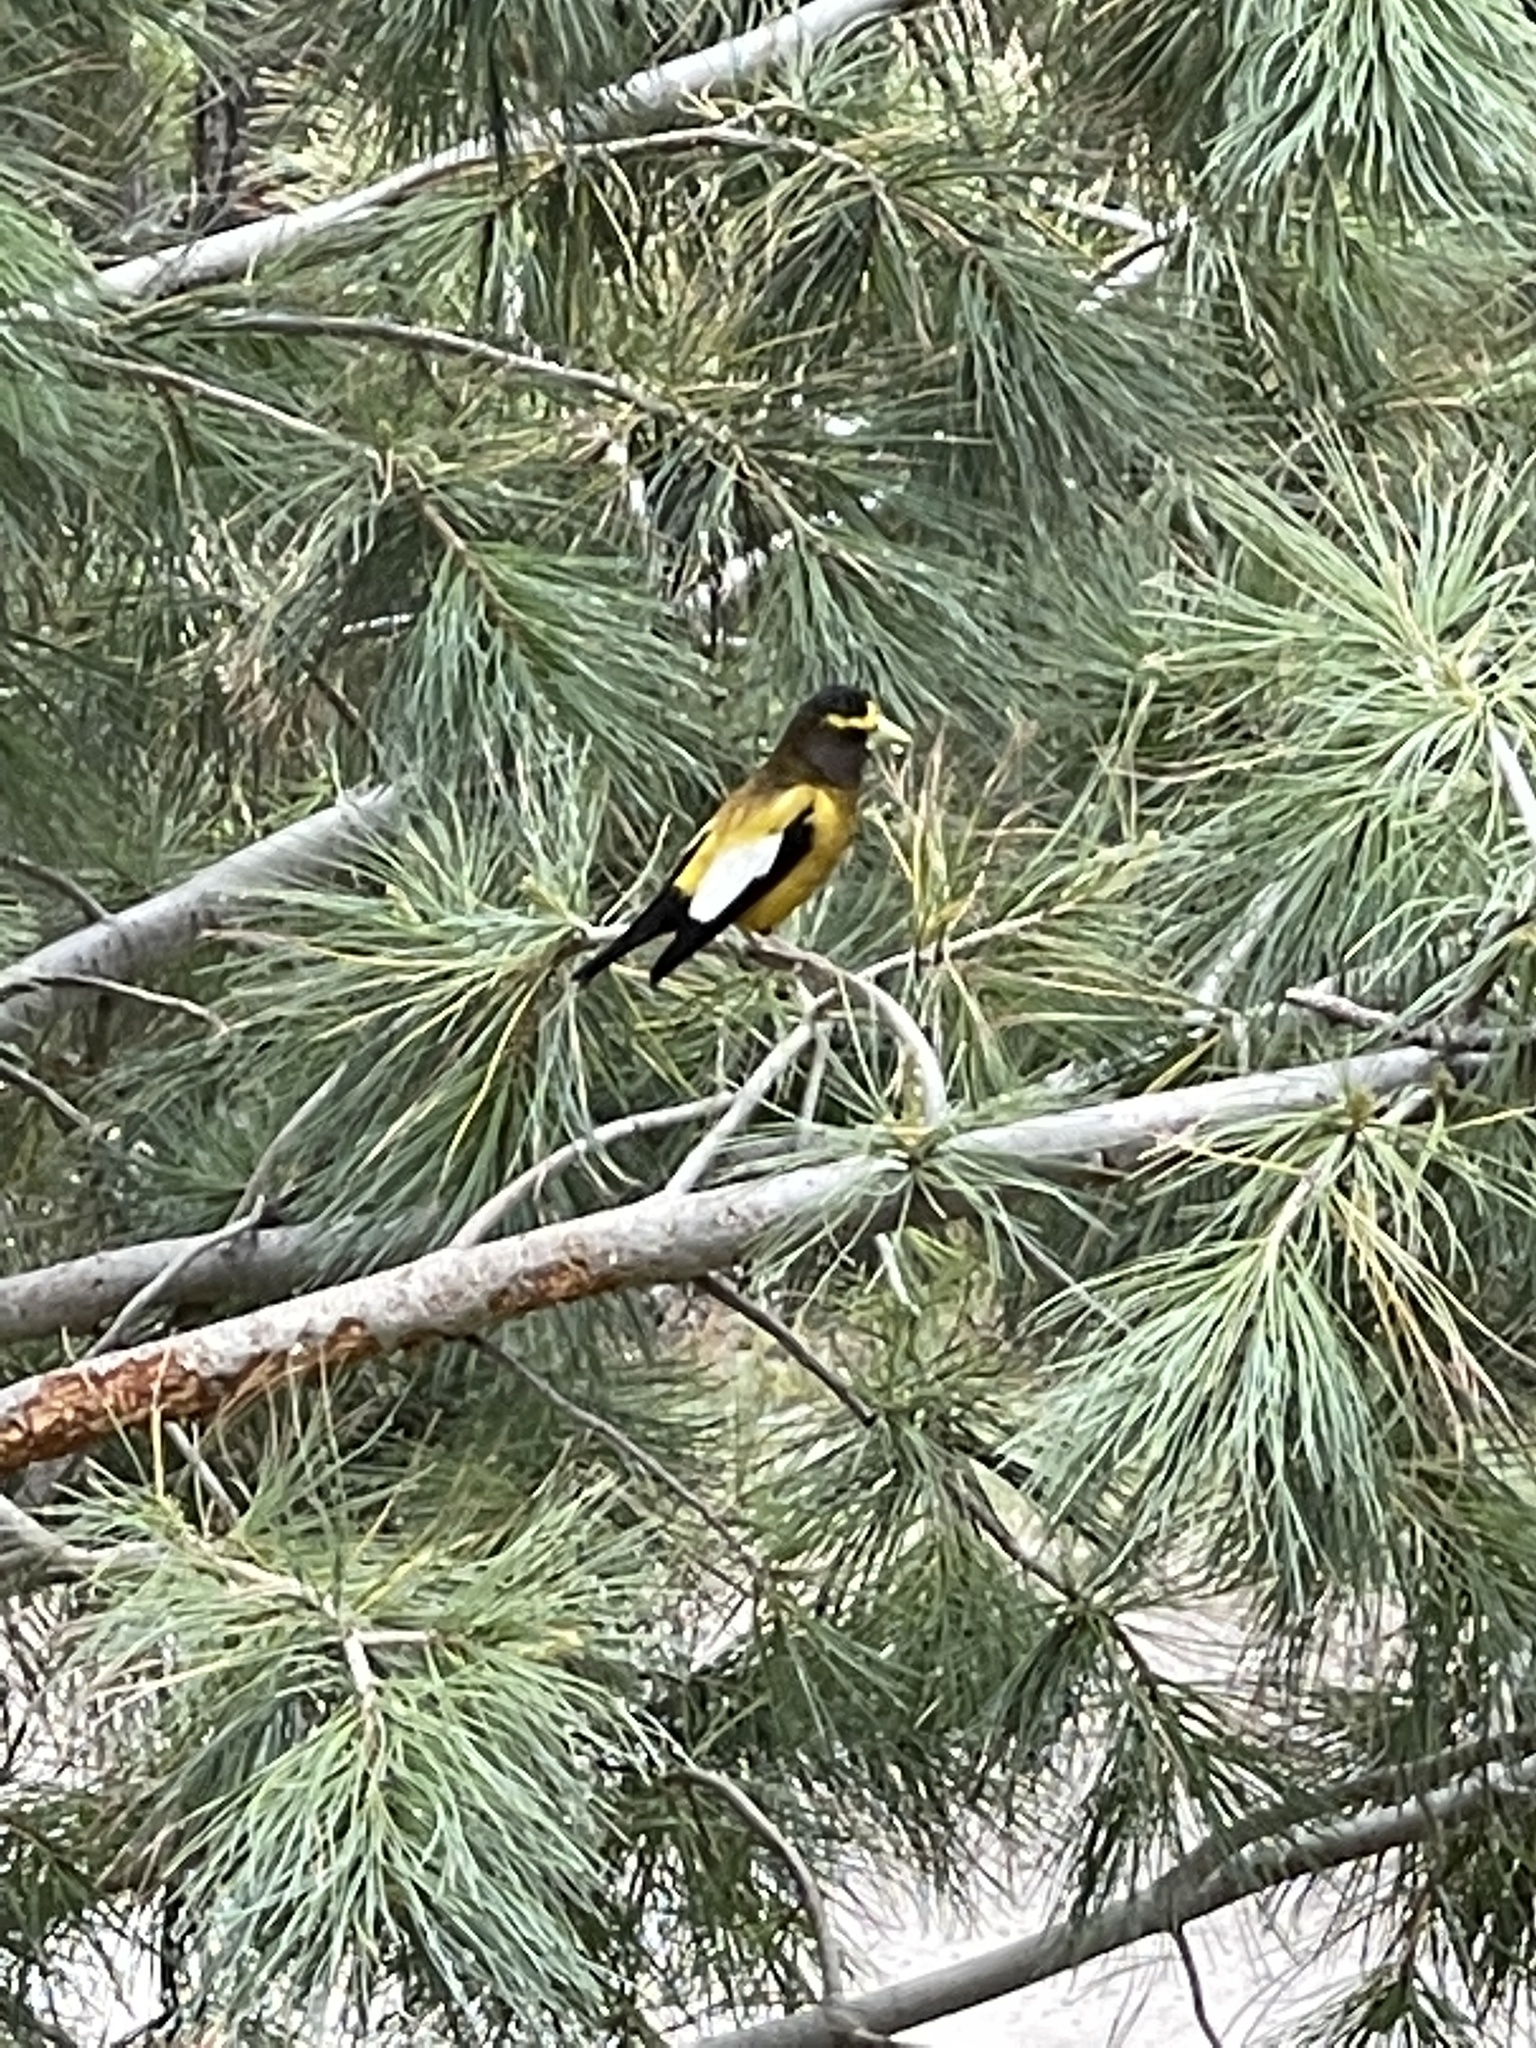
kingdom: Animalia
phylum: Chordata
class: Aves
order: Passeriformes
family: Fringillidae
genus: Hesperiphona
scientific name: Hesperiphona vespertina
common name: Evening grosbeak
